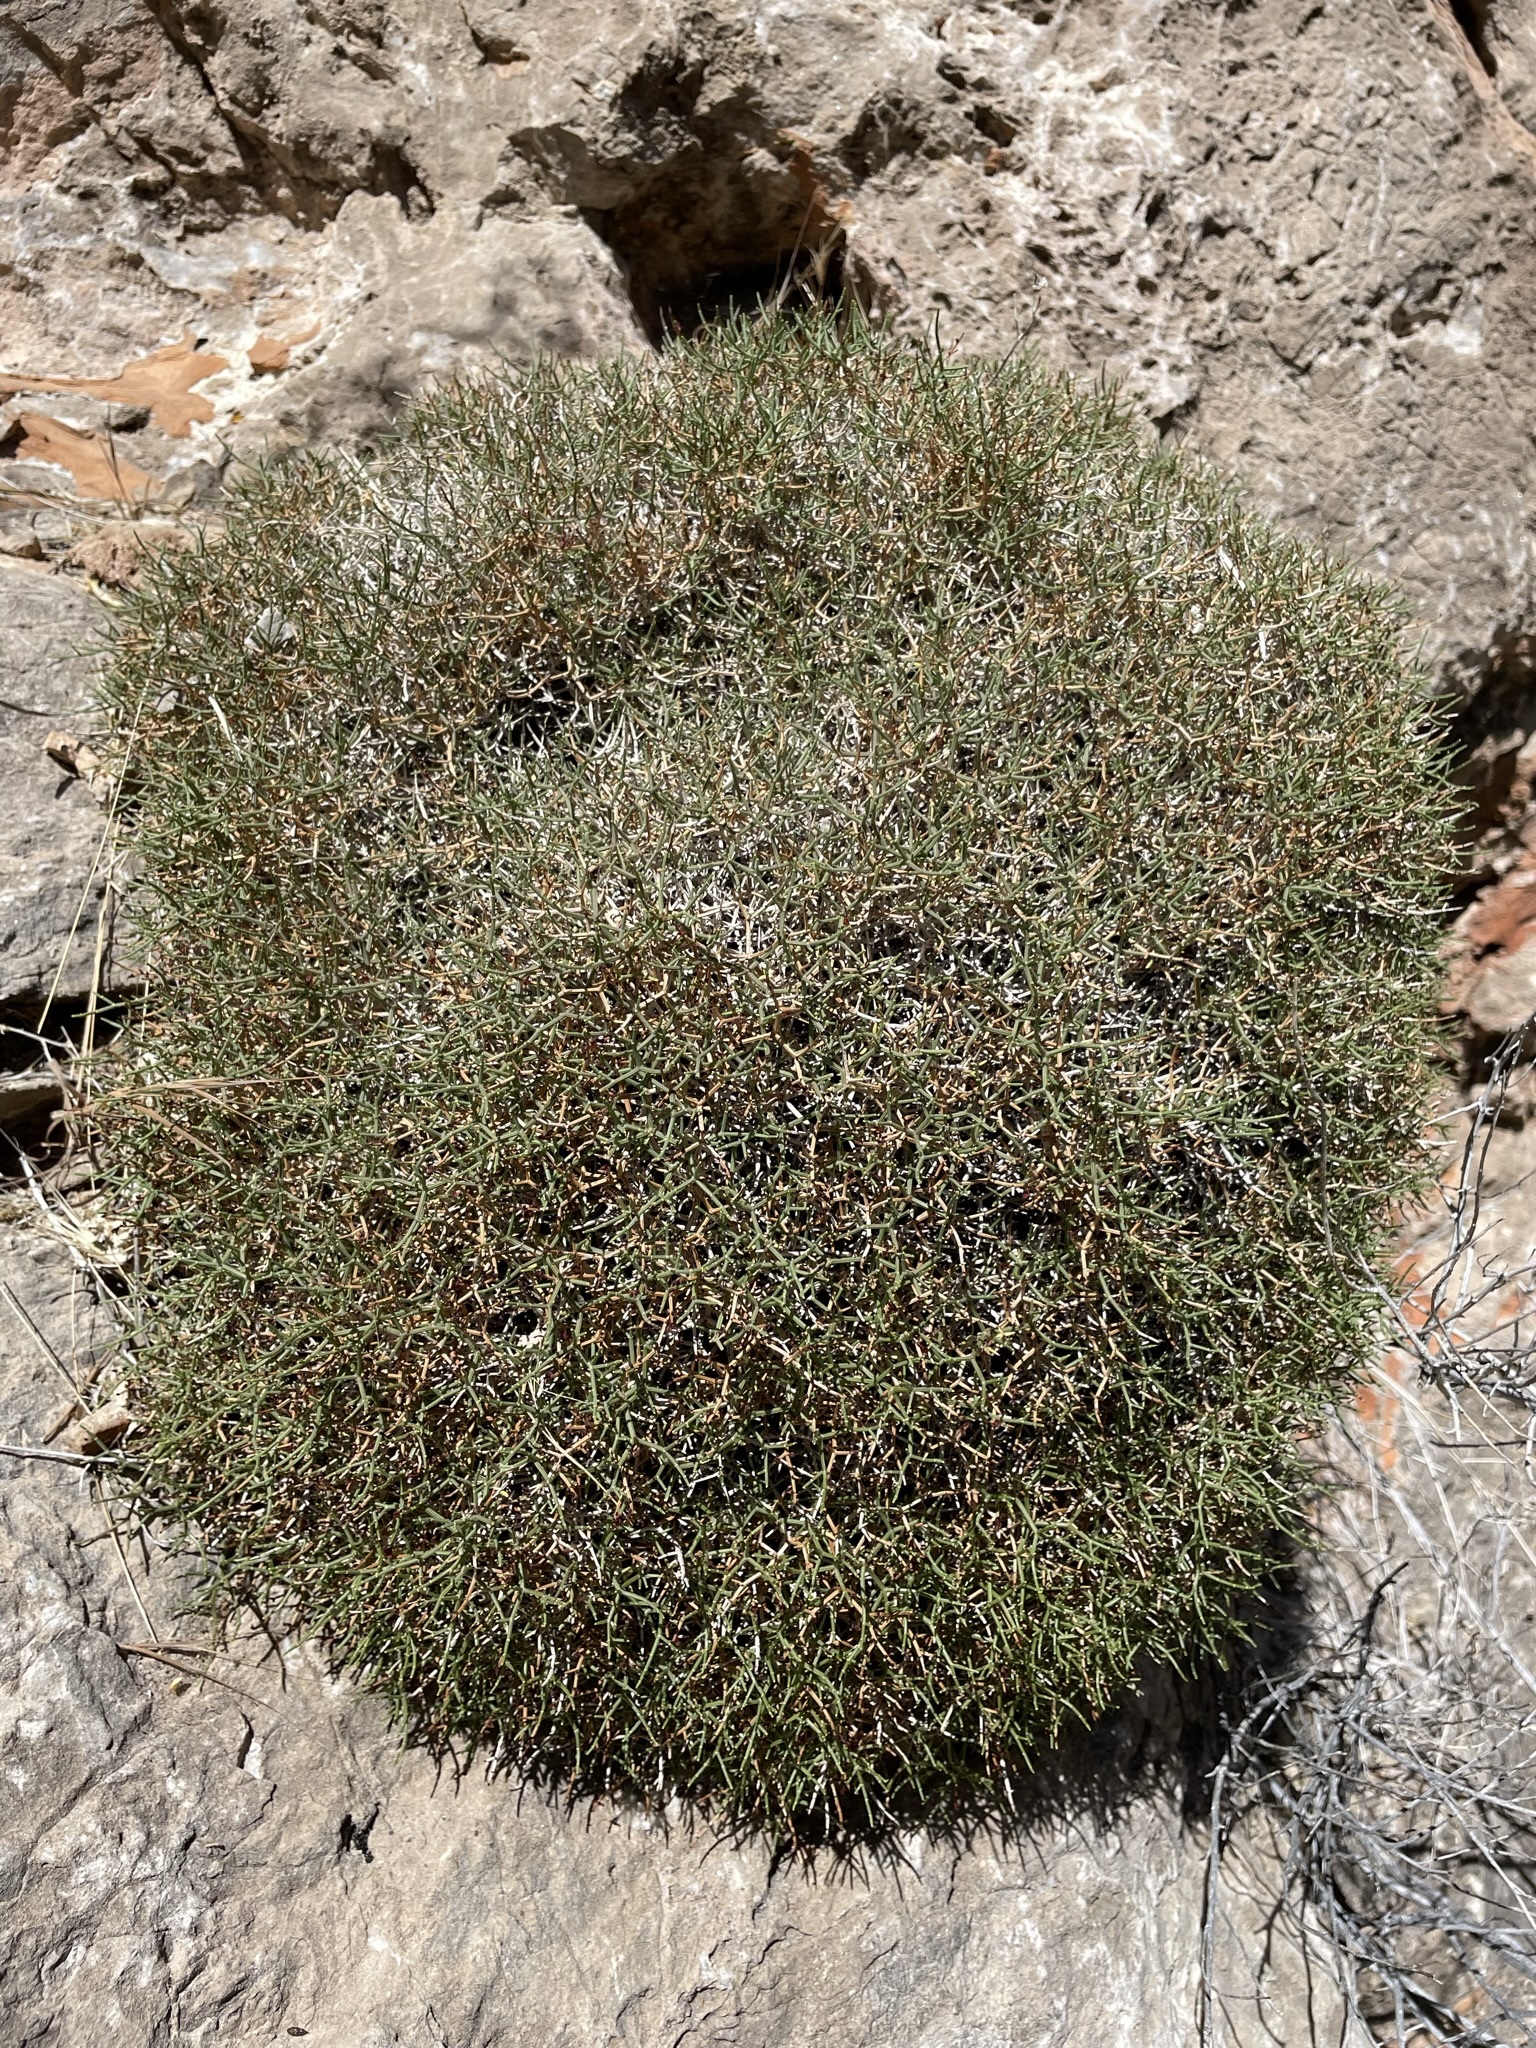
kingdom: Plantae
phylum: Tracheophyta
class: Magnoliopsida
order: Caryophyllales
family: Polygonaceae
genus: Eriogonum
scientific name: Eriogonum heermannii
